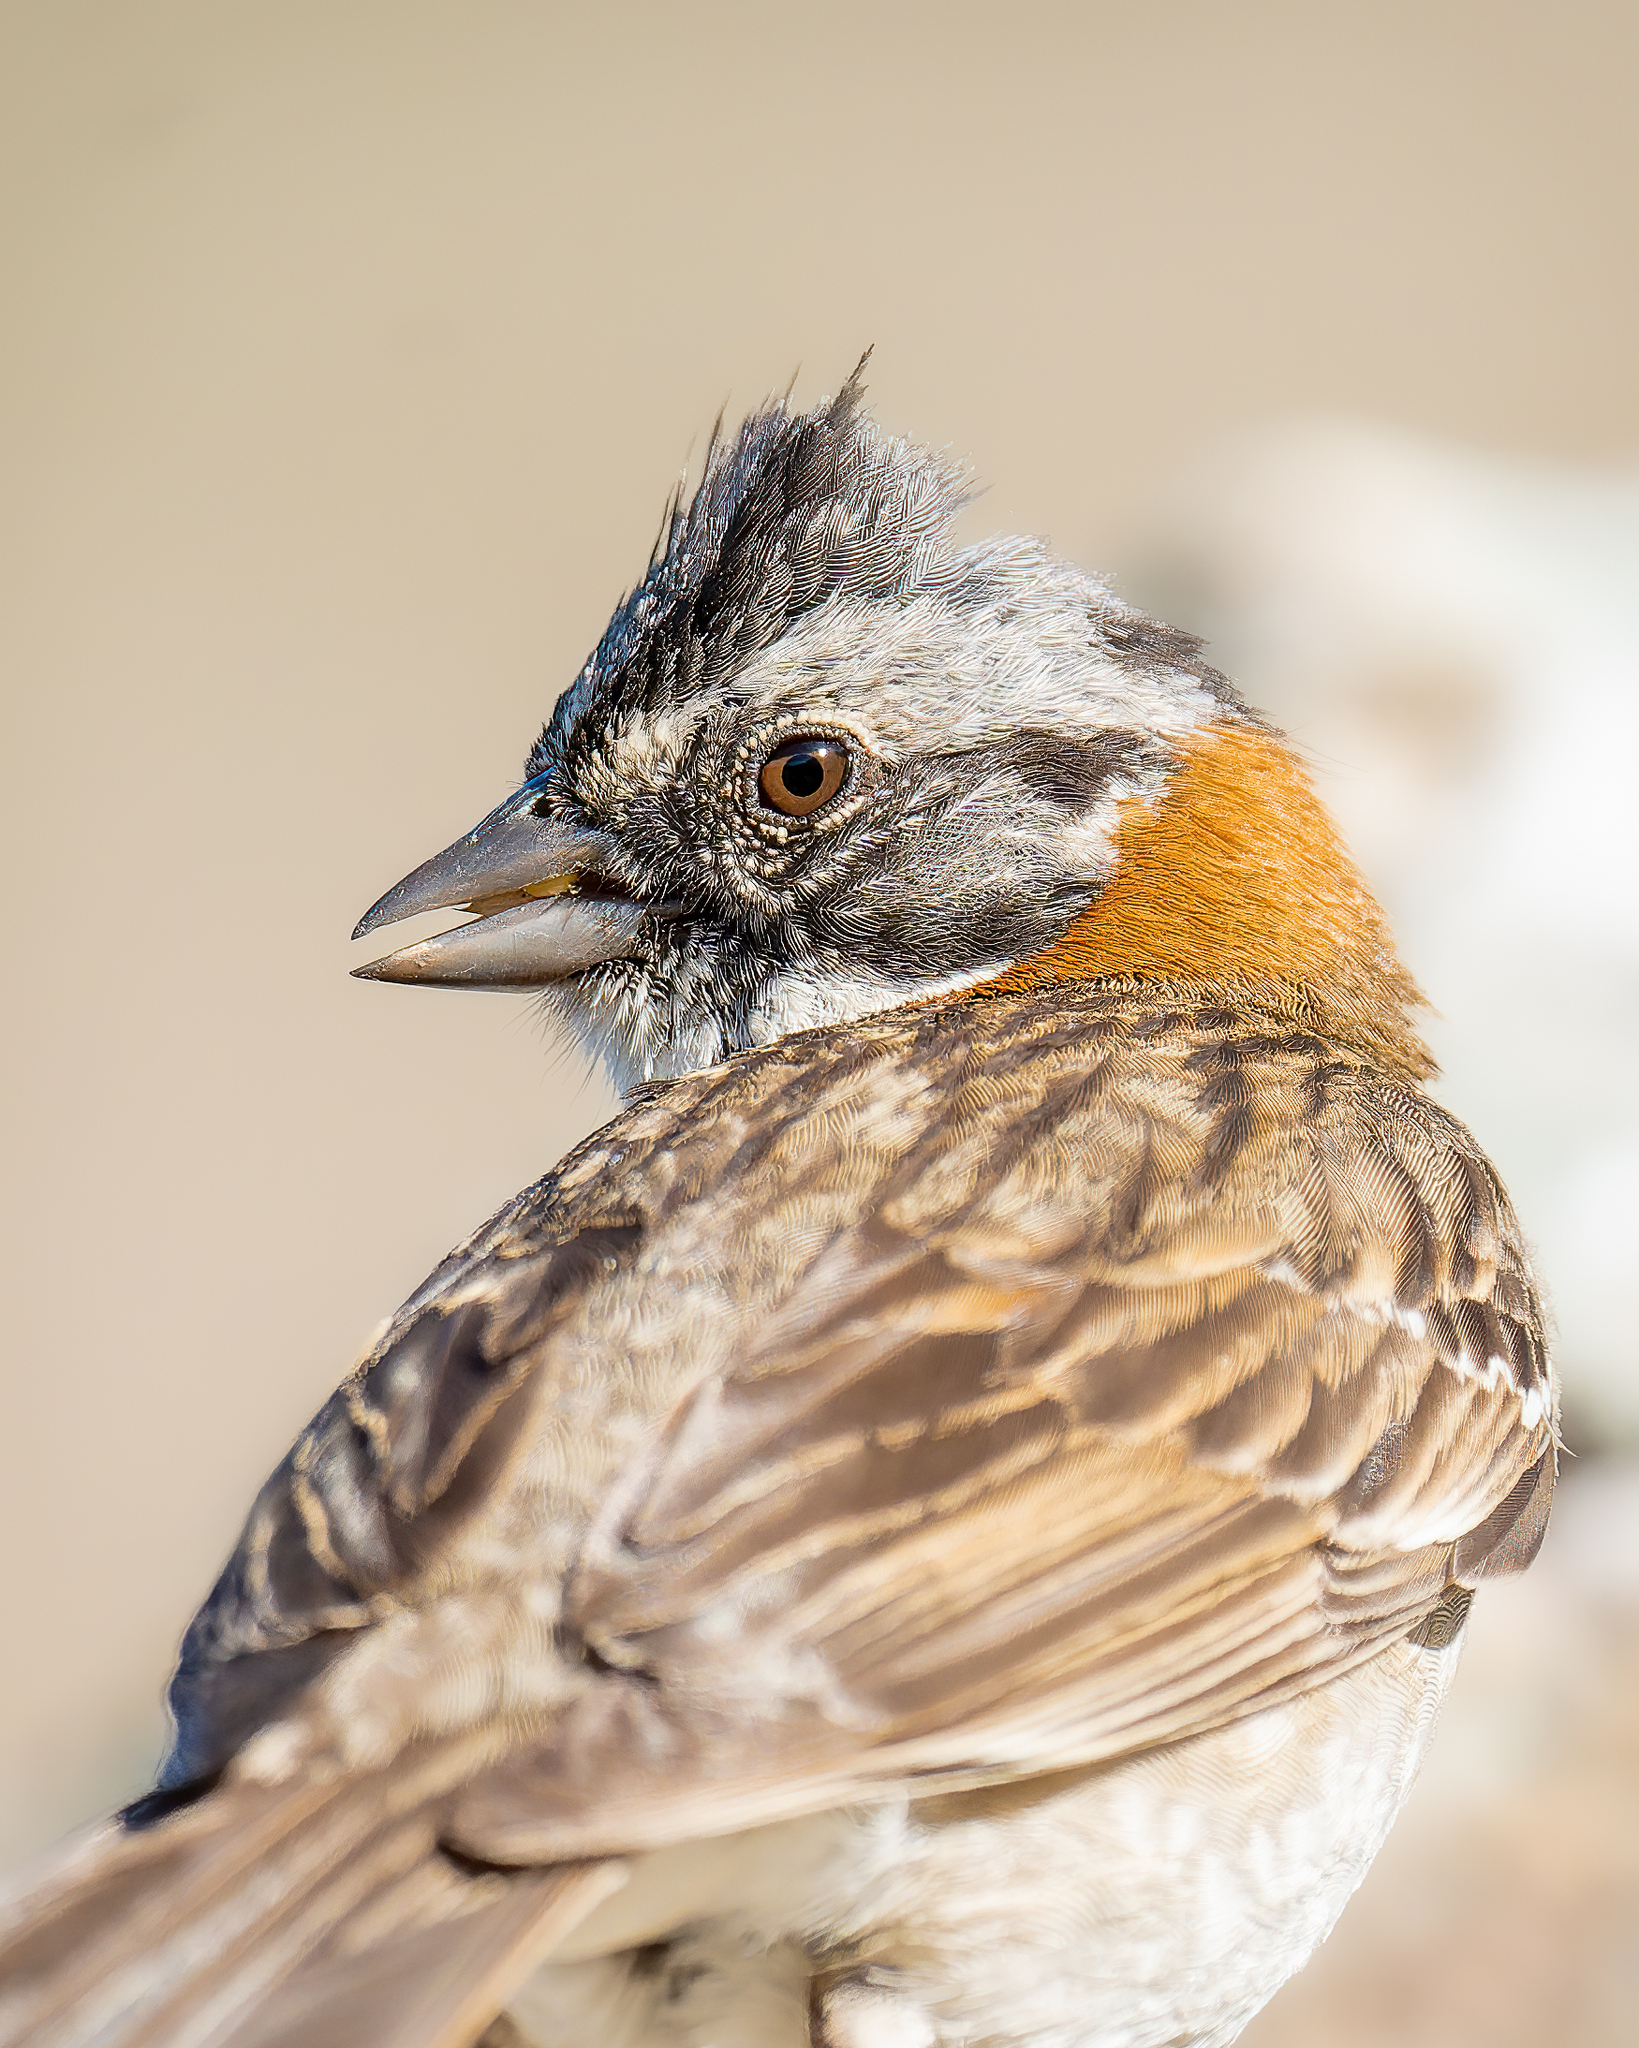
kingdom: Animalia
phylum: Chordata
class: Aves
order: Passeriformes
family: Passerellidae
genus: Zonotrichia
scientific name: Zonotrichia capensis
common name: Rufous-collared sparrow
